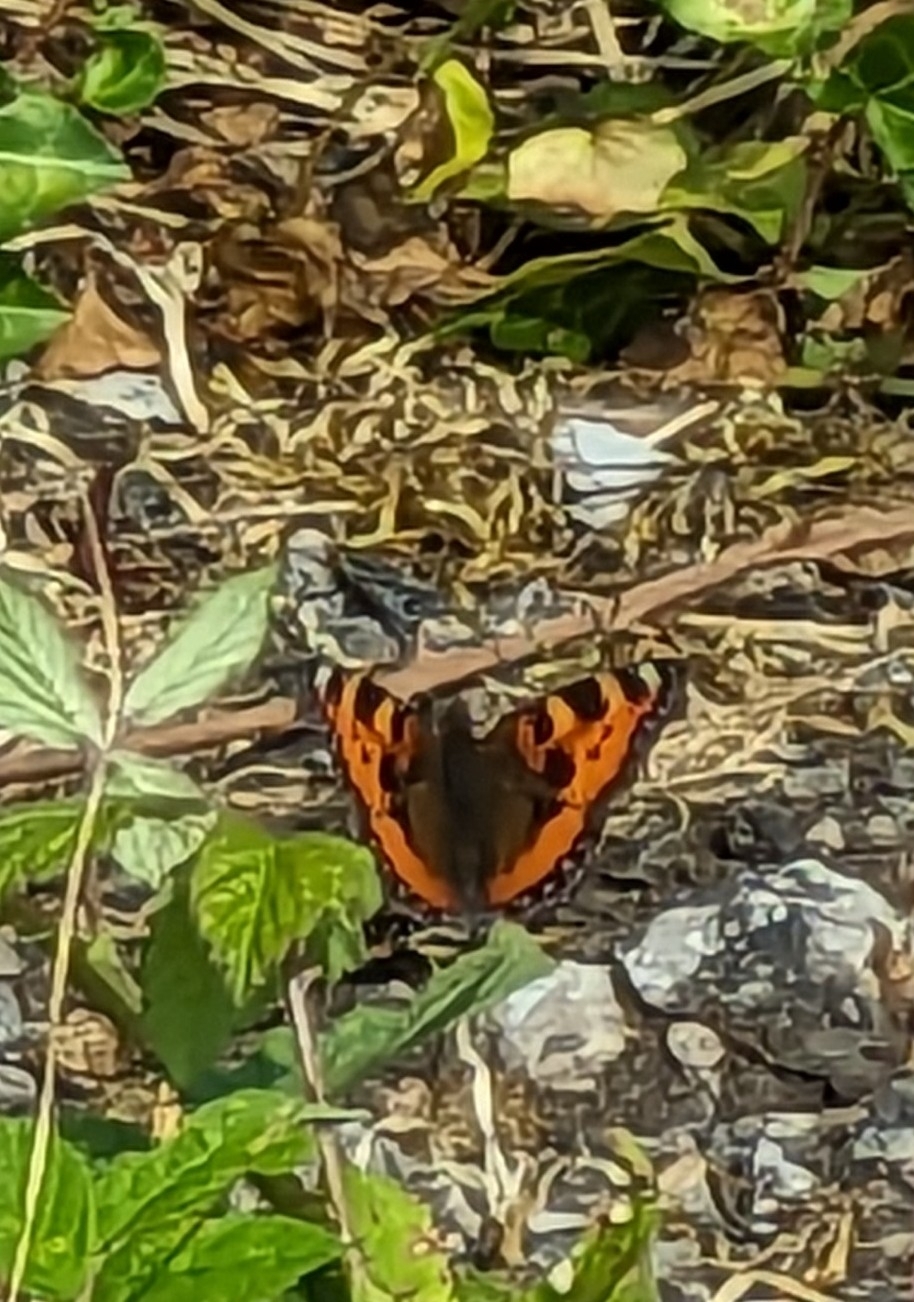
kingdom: Animalia
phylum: Arthropoda
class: Insecta
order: Lepidoptera
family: Nymphalidae
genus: Aglais
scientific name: Aglais urticae
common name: Small tortoiseshell
